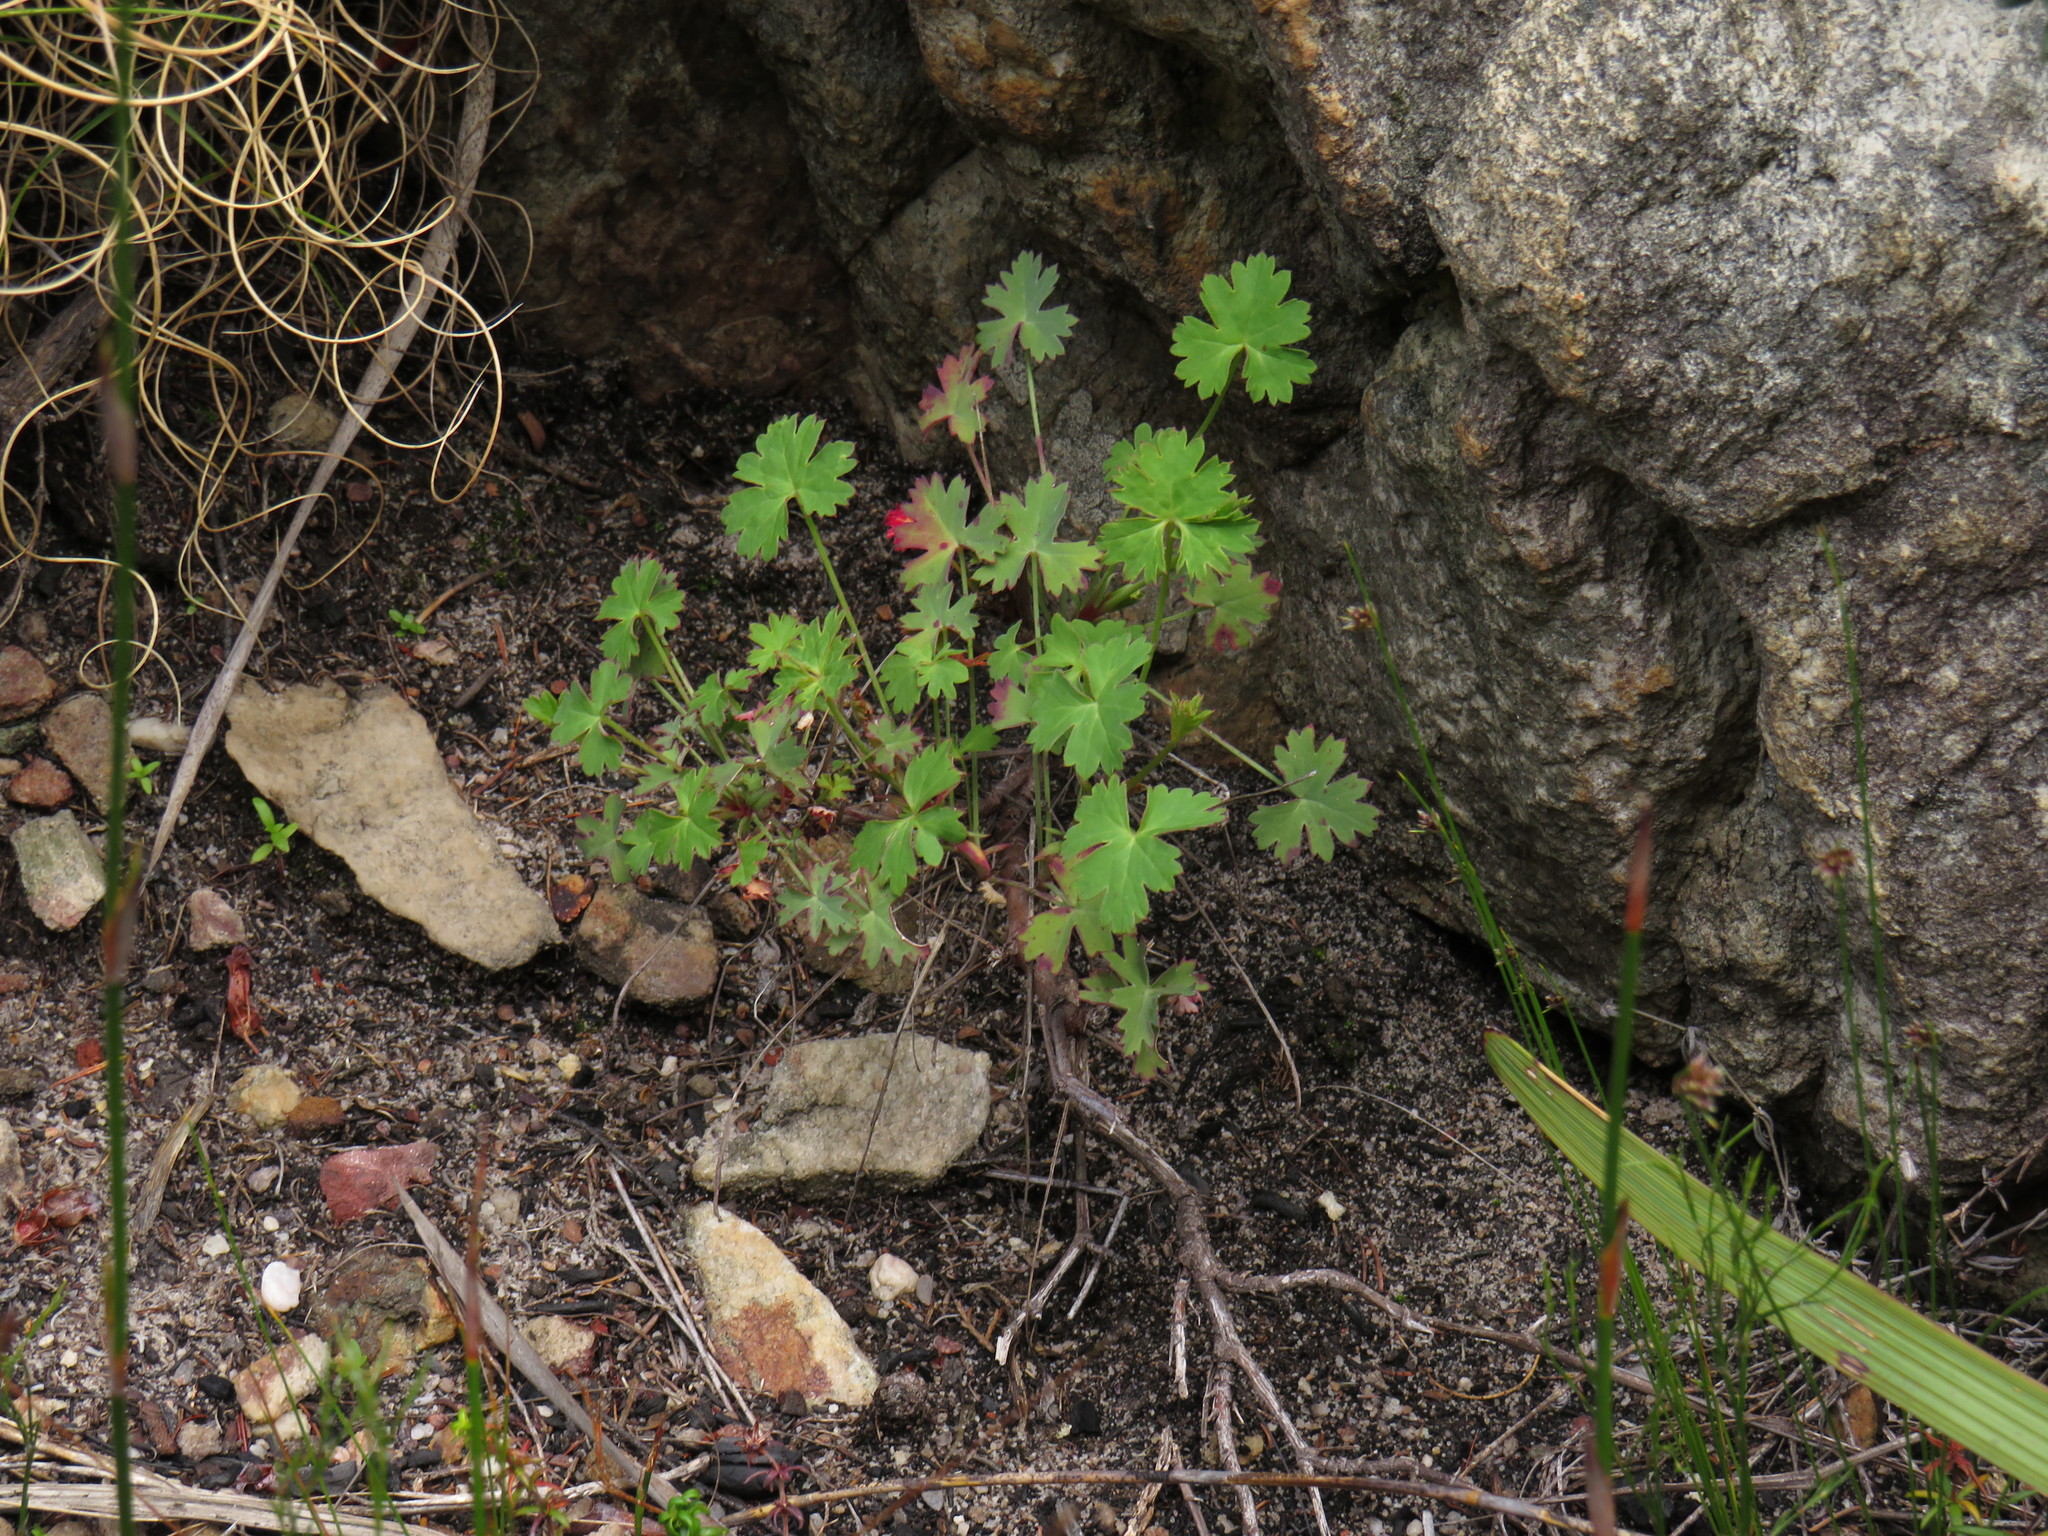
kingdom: Plantae
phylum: Tracheophyta
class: Magnoliopsida
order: Geraniales
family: Geraniaceae
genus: Pelargonium
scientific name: Pelargonium patulum
